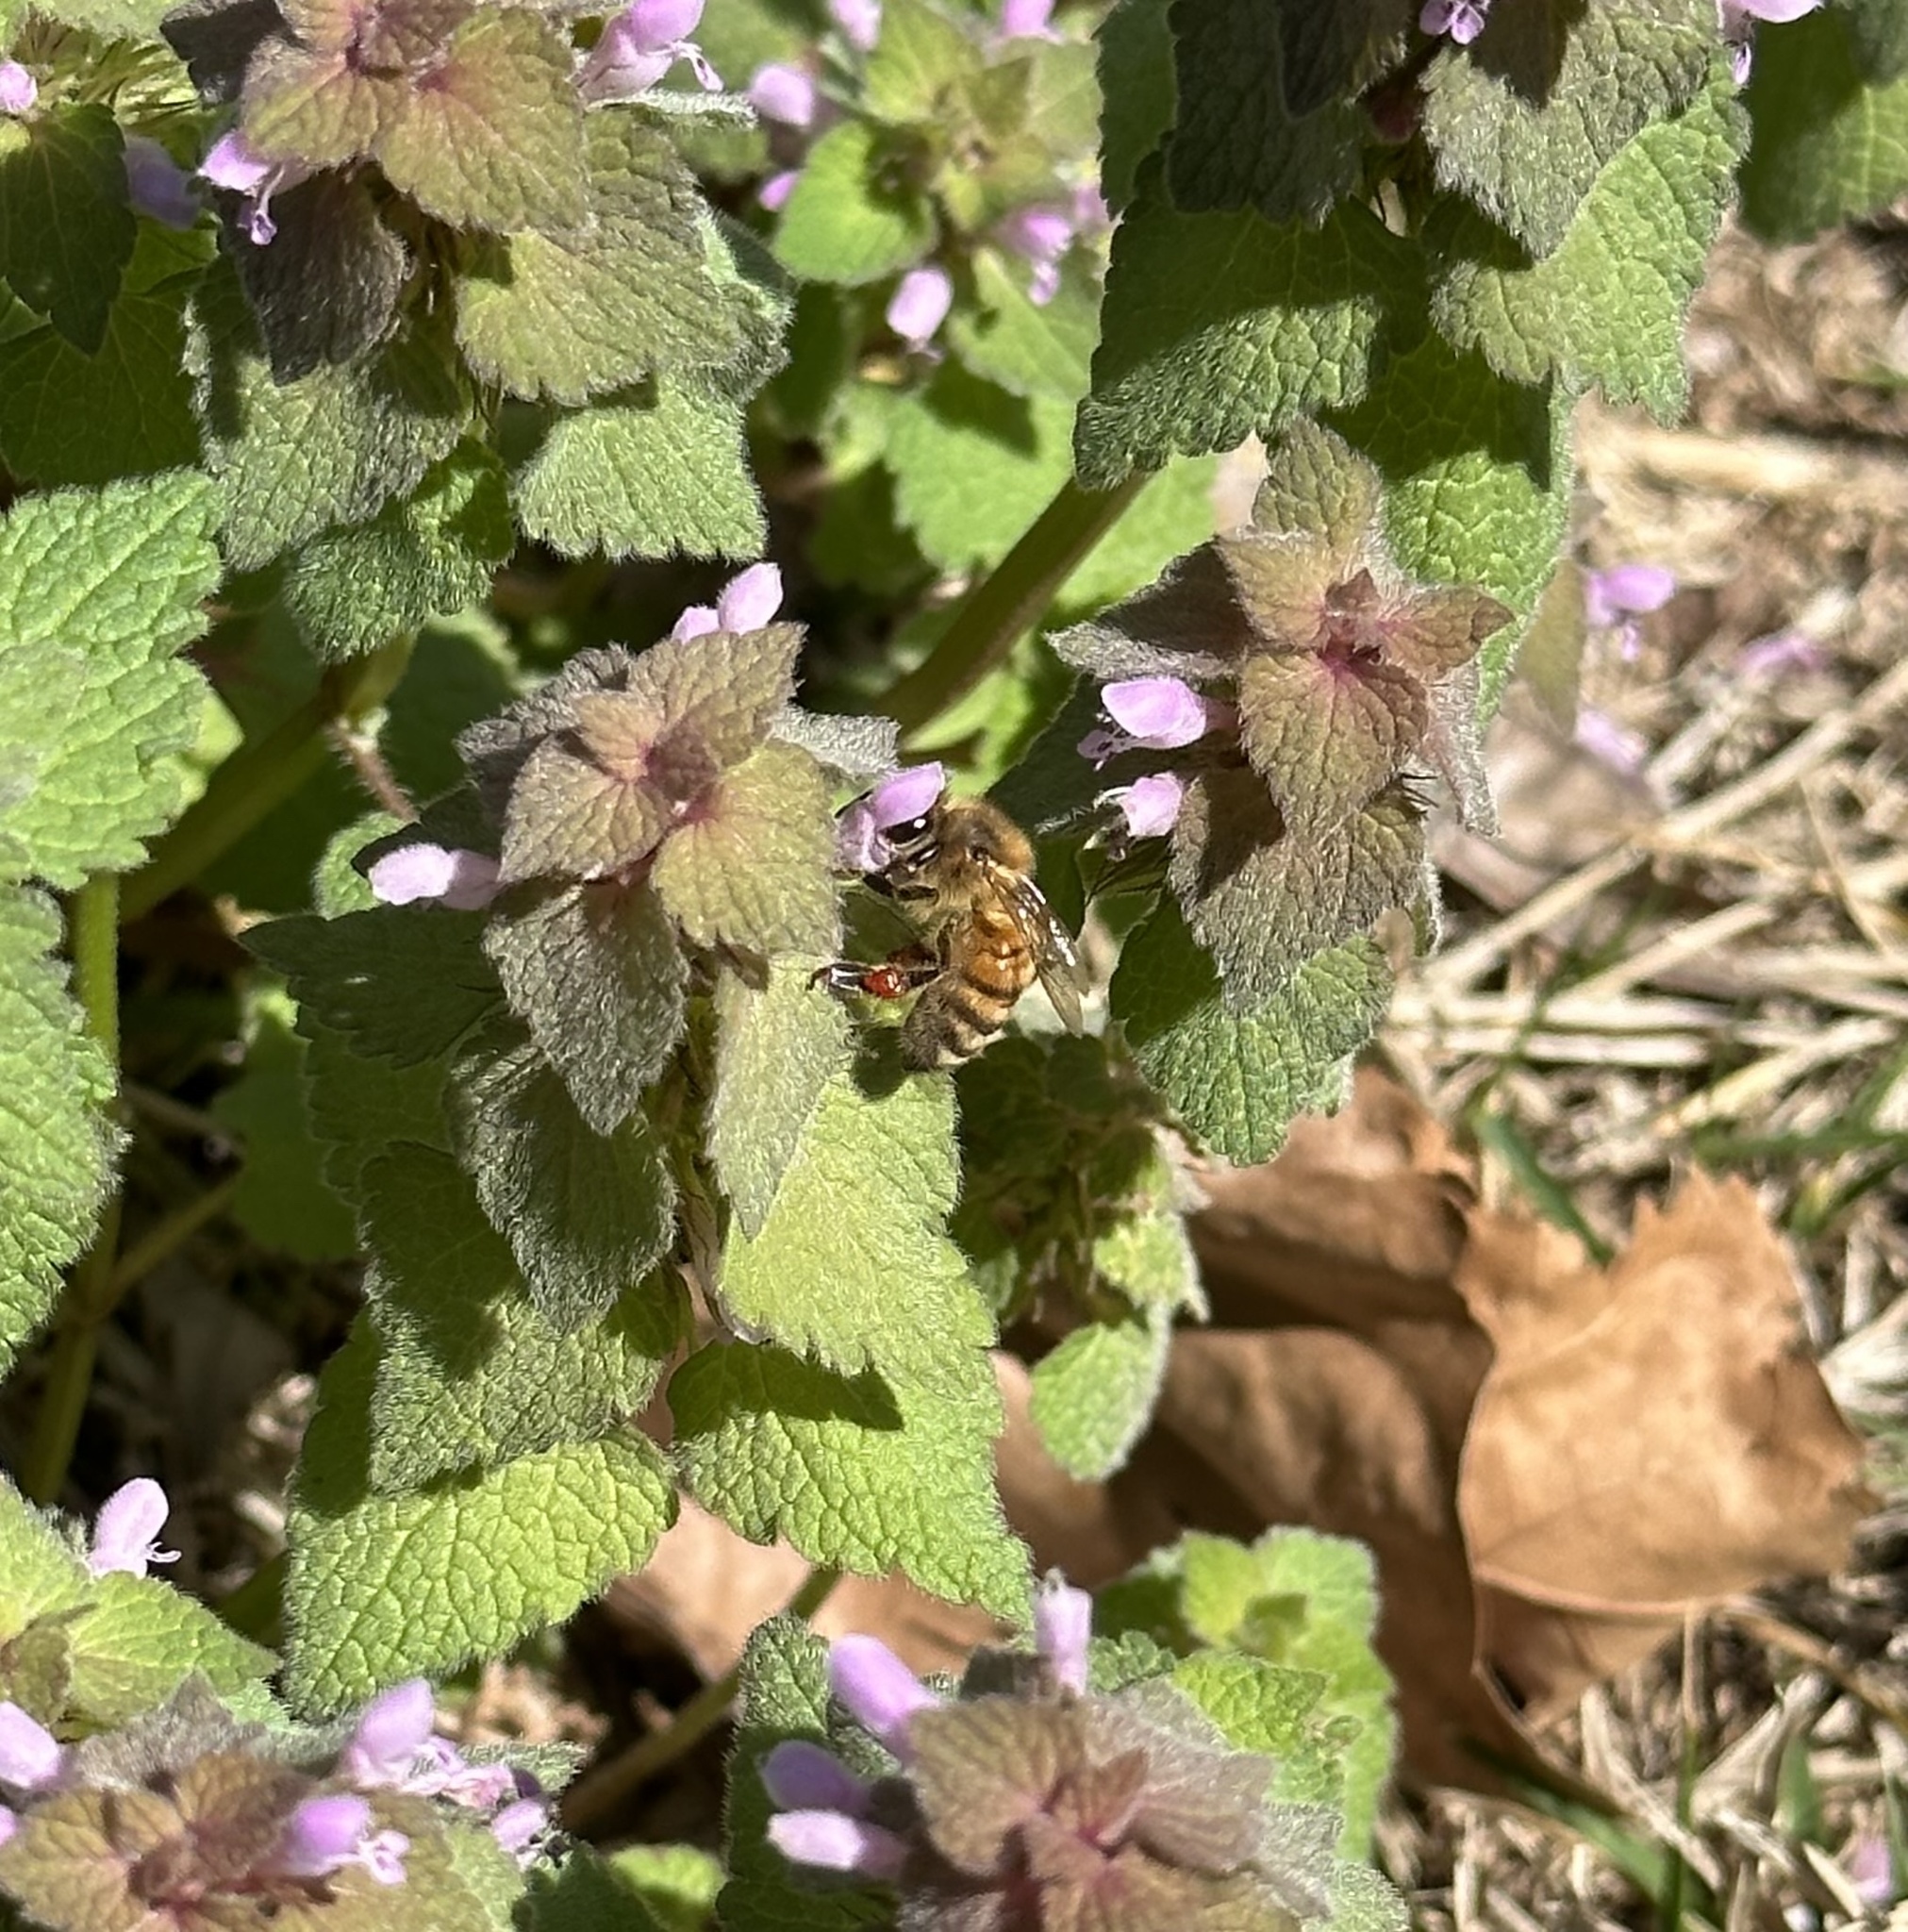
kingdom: Animalia
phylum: Arthropoda
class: Insecta
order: Hymenoptera
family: Apidae
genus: Apis
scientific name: Apis mellifera
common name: Honey bee
